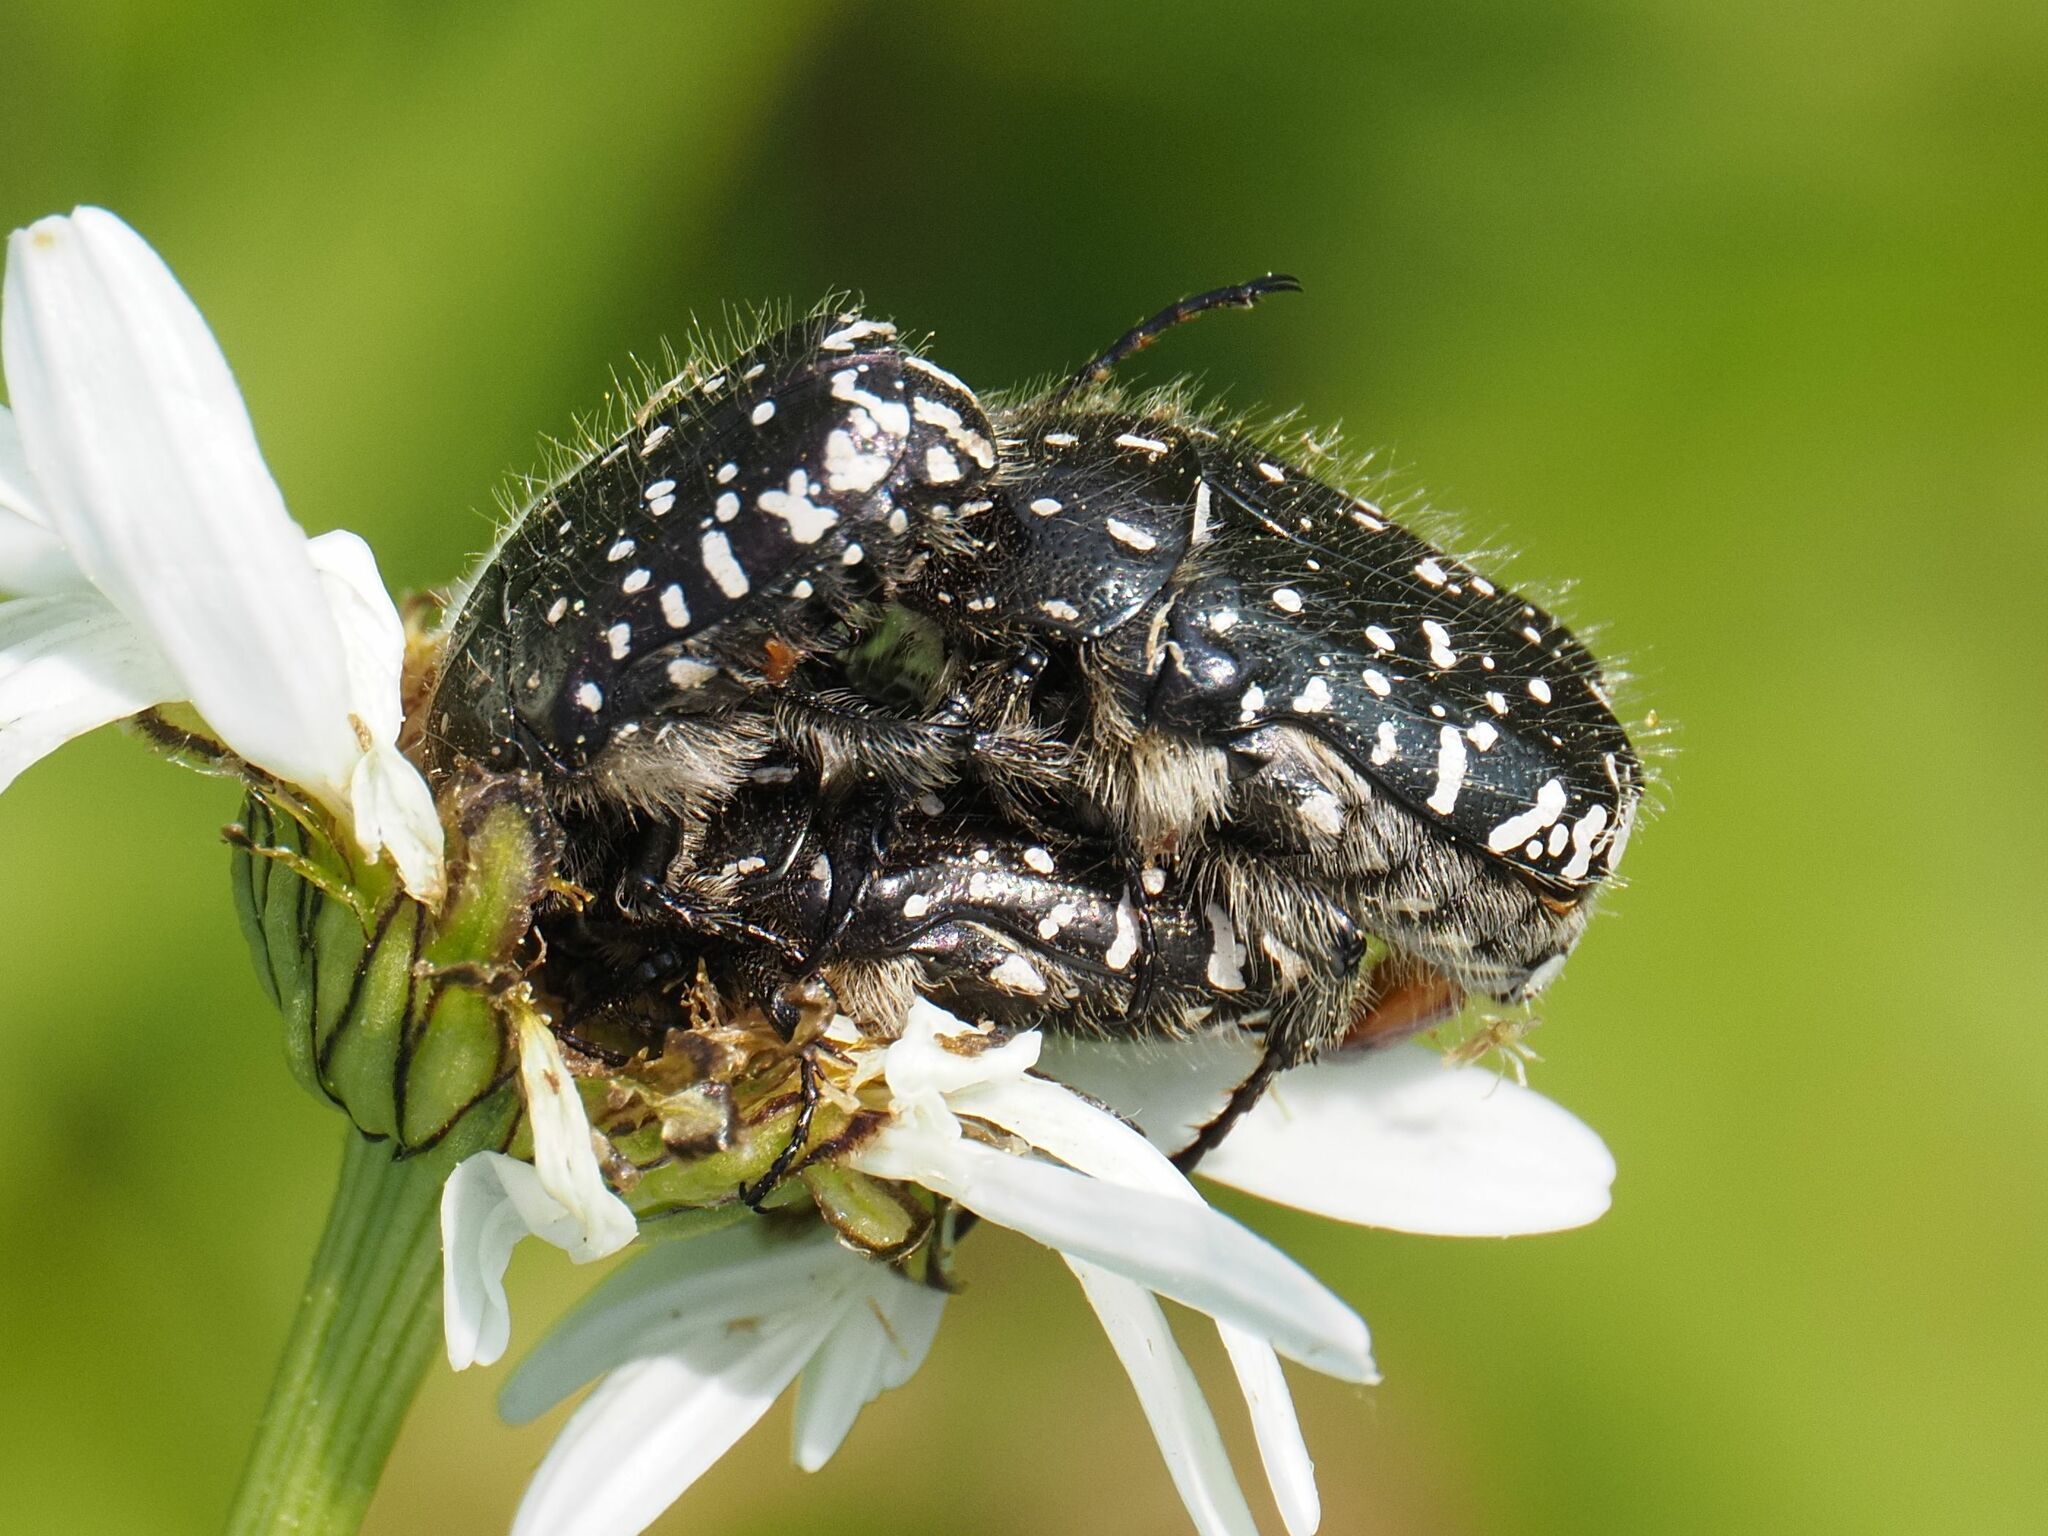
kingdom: Animalia
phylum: Arthropoda
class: Insecta
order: Coleoptera
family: Scarabaeidae
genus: Oxythyrea
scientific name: Oxythyrea funesta
